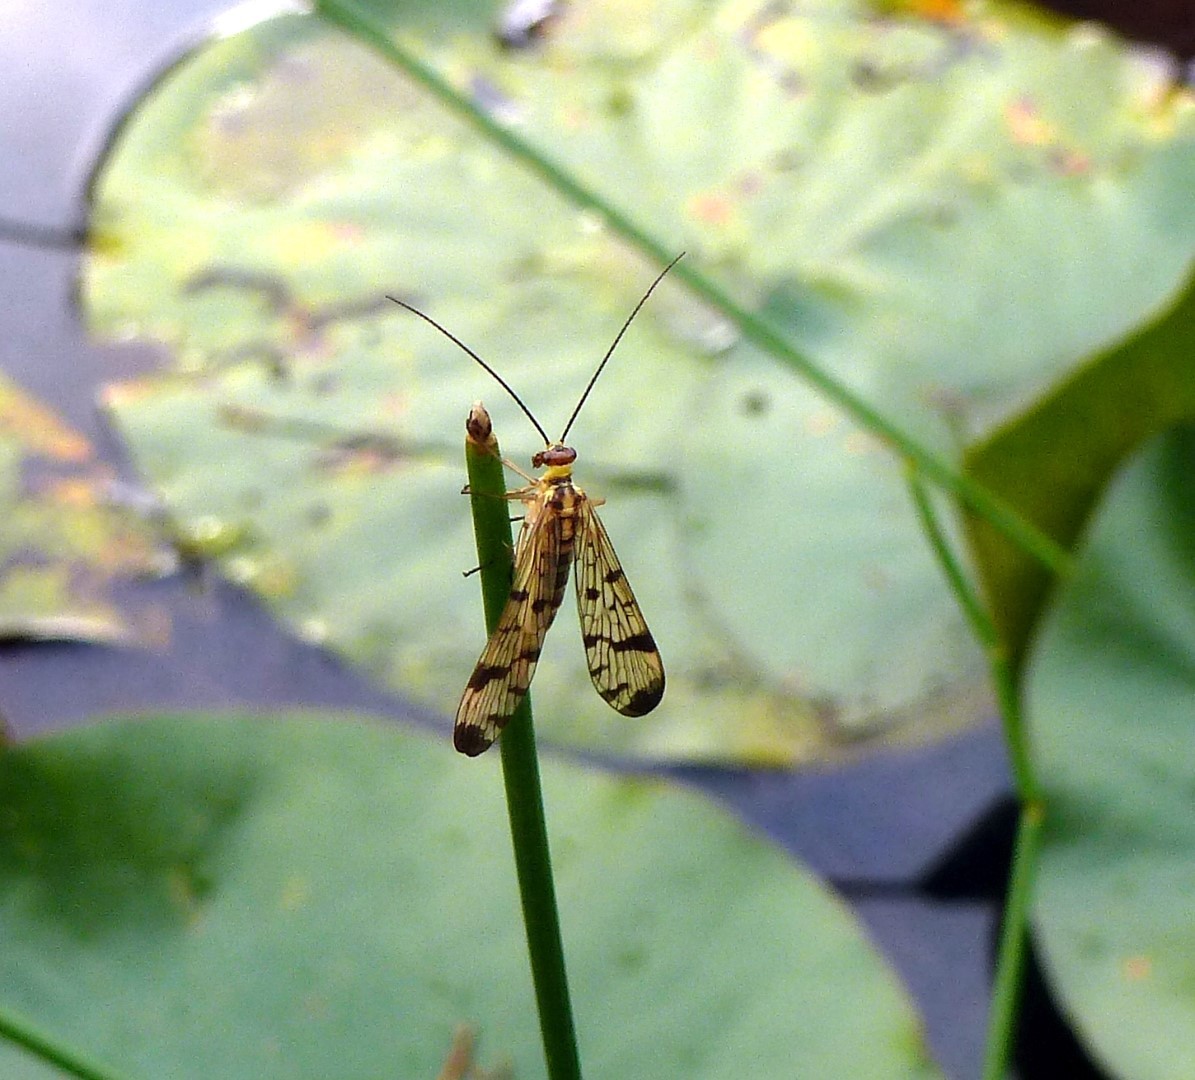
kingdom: Animalia
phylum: Arthropoda
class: Insecta
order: Mecoptera
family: Panorpidae
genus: Panorpa
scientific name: Panorpa communis
